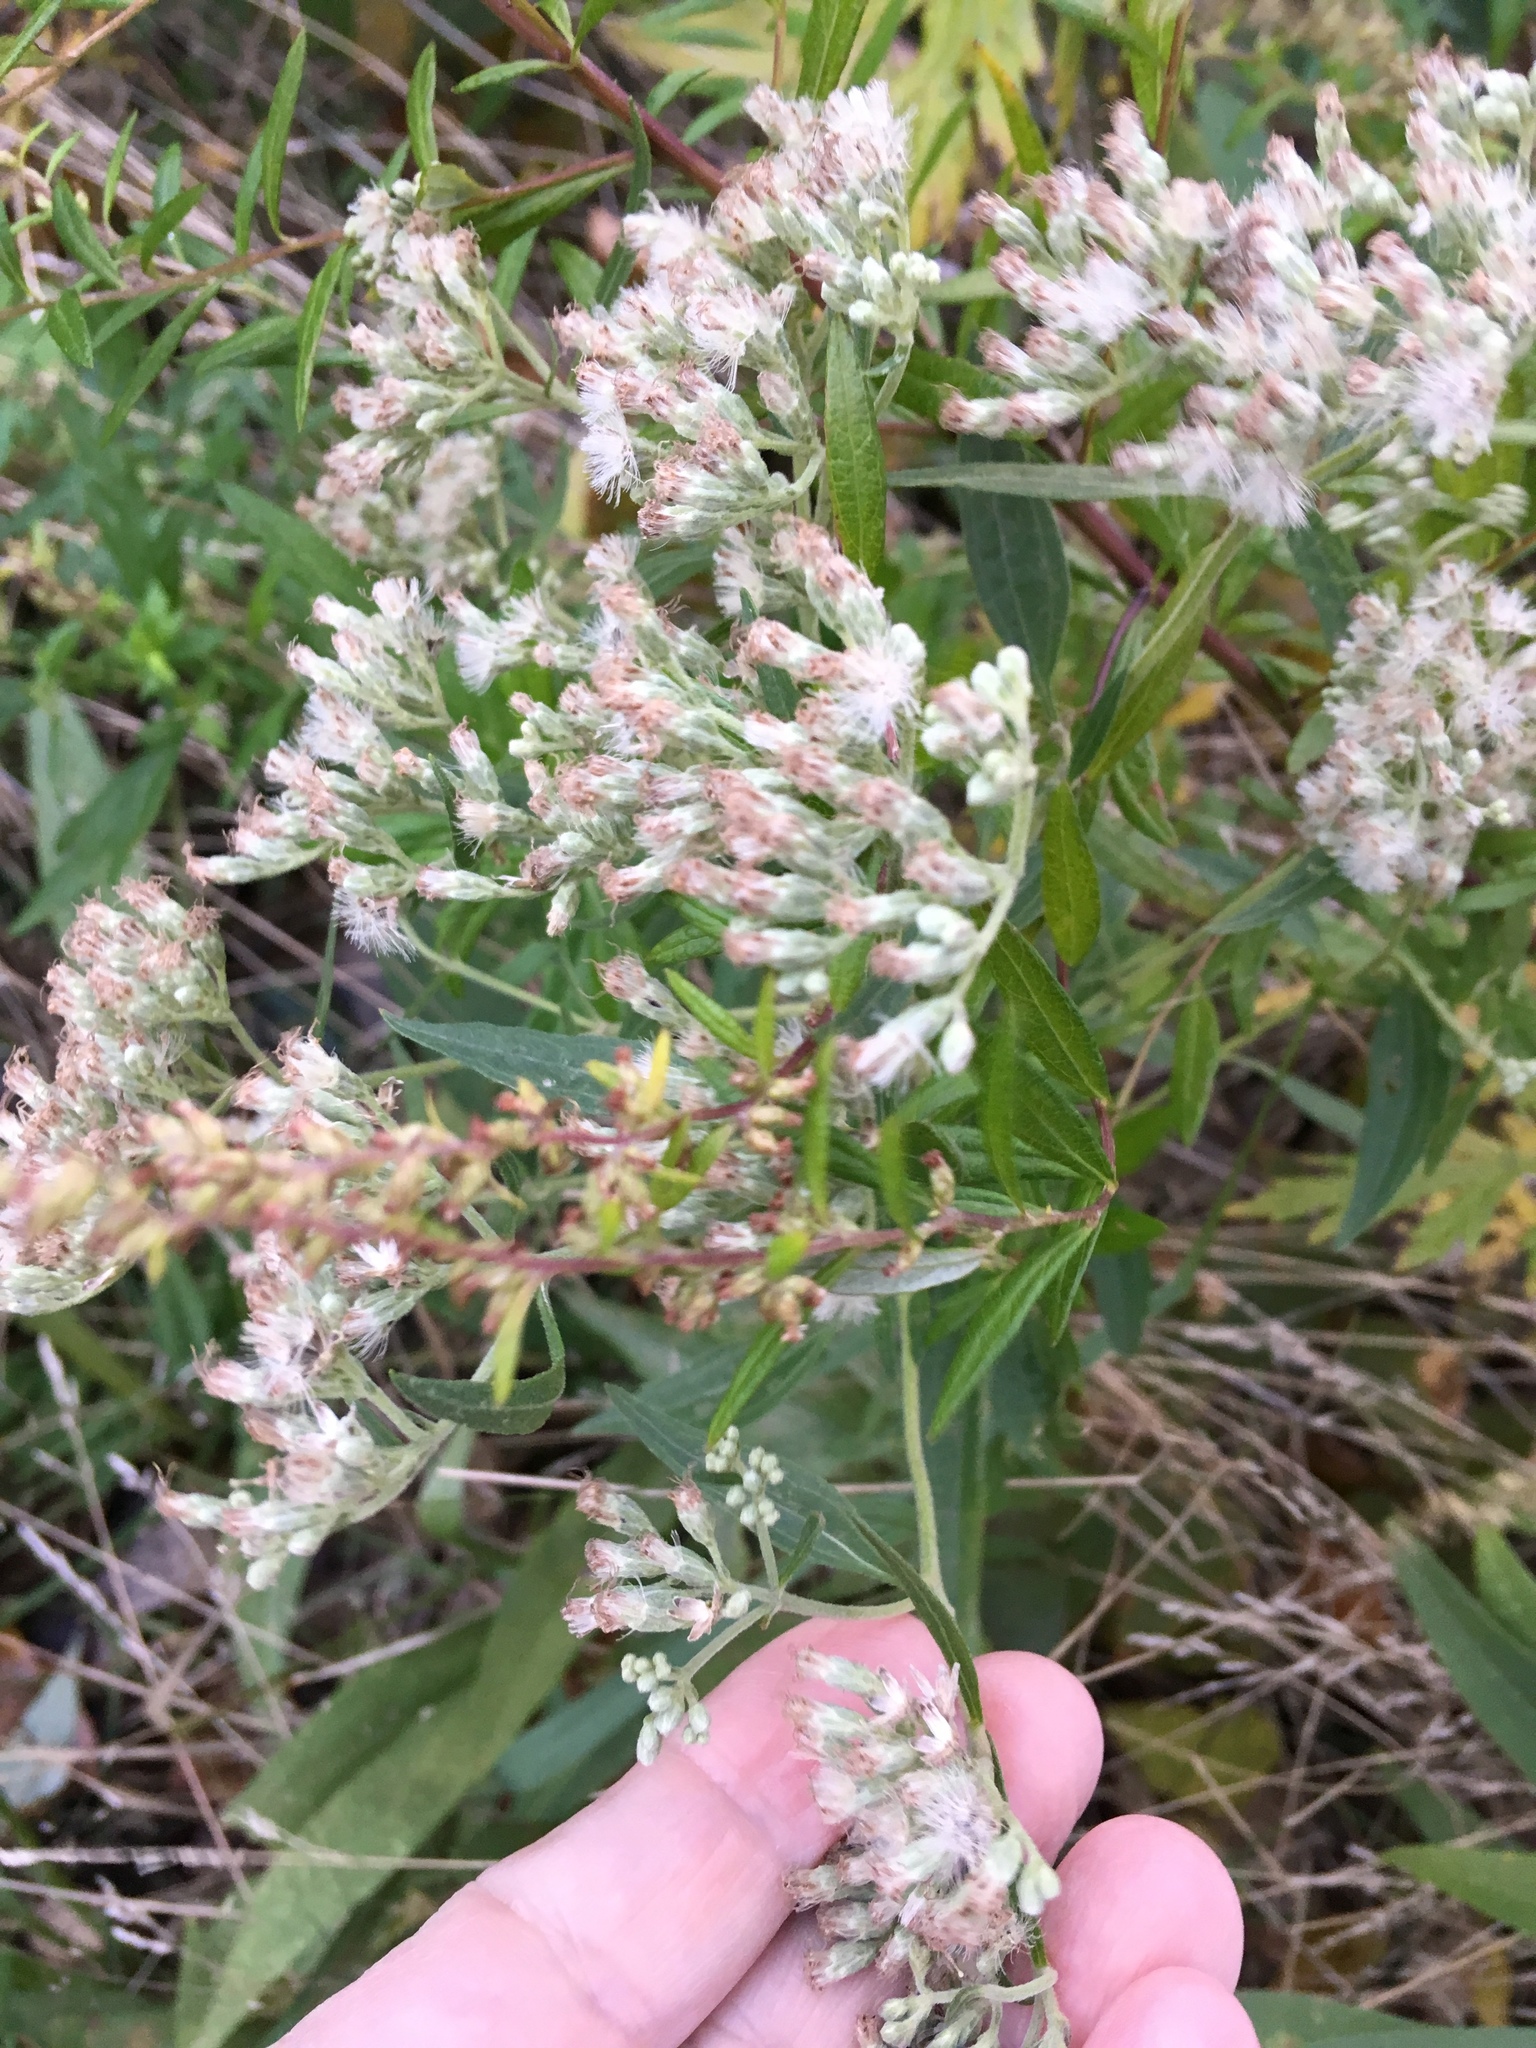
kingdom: Plantae
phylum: Tracheophyta
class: Magnoliopsida
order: Asterales
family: Asteraceae
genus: Baccharis
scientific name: Baccharis halimifolia
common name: Eastern baccharis
